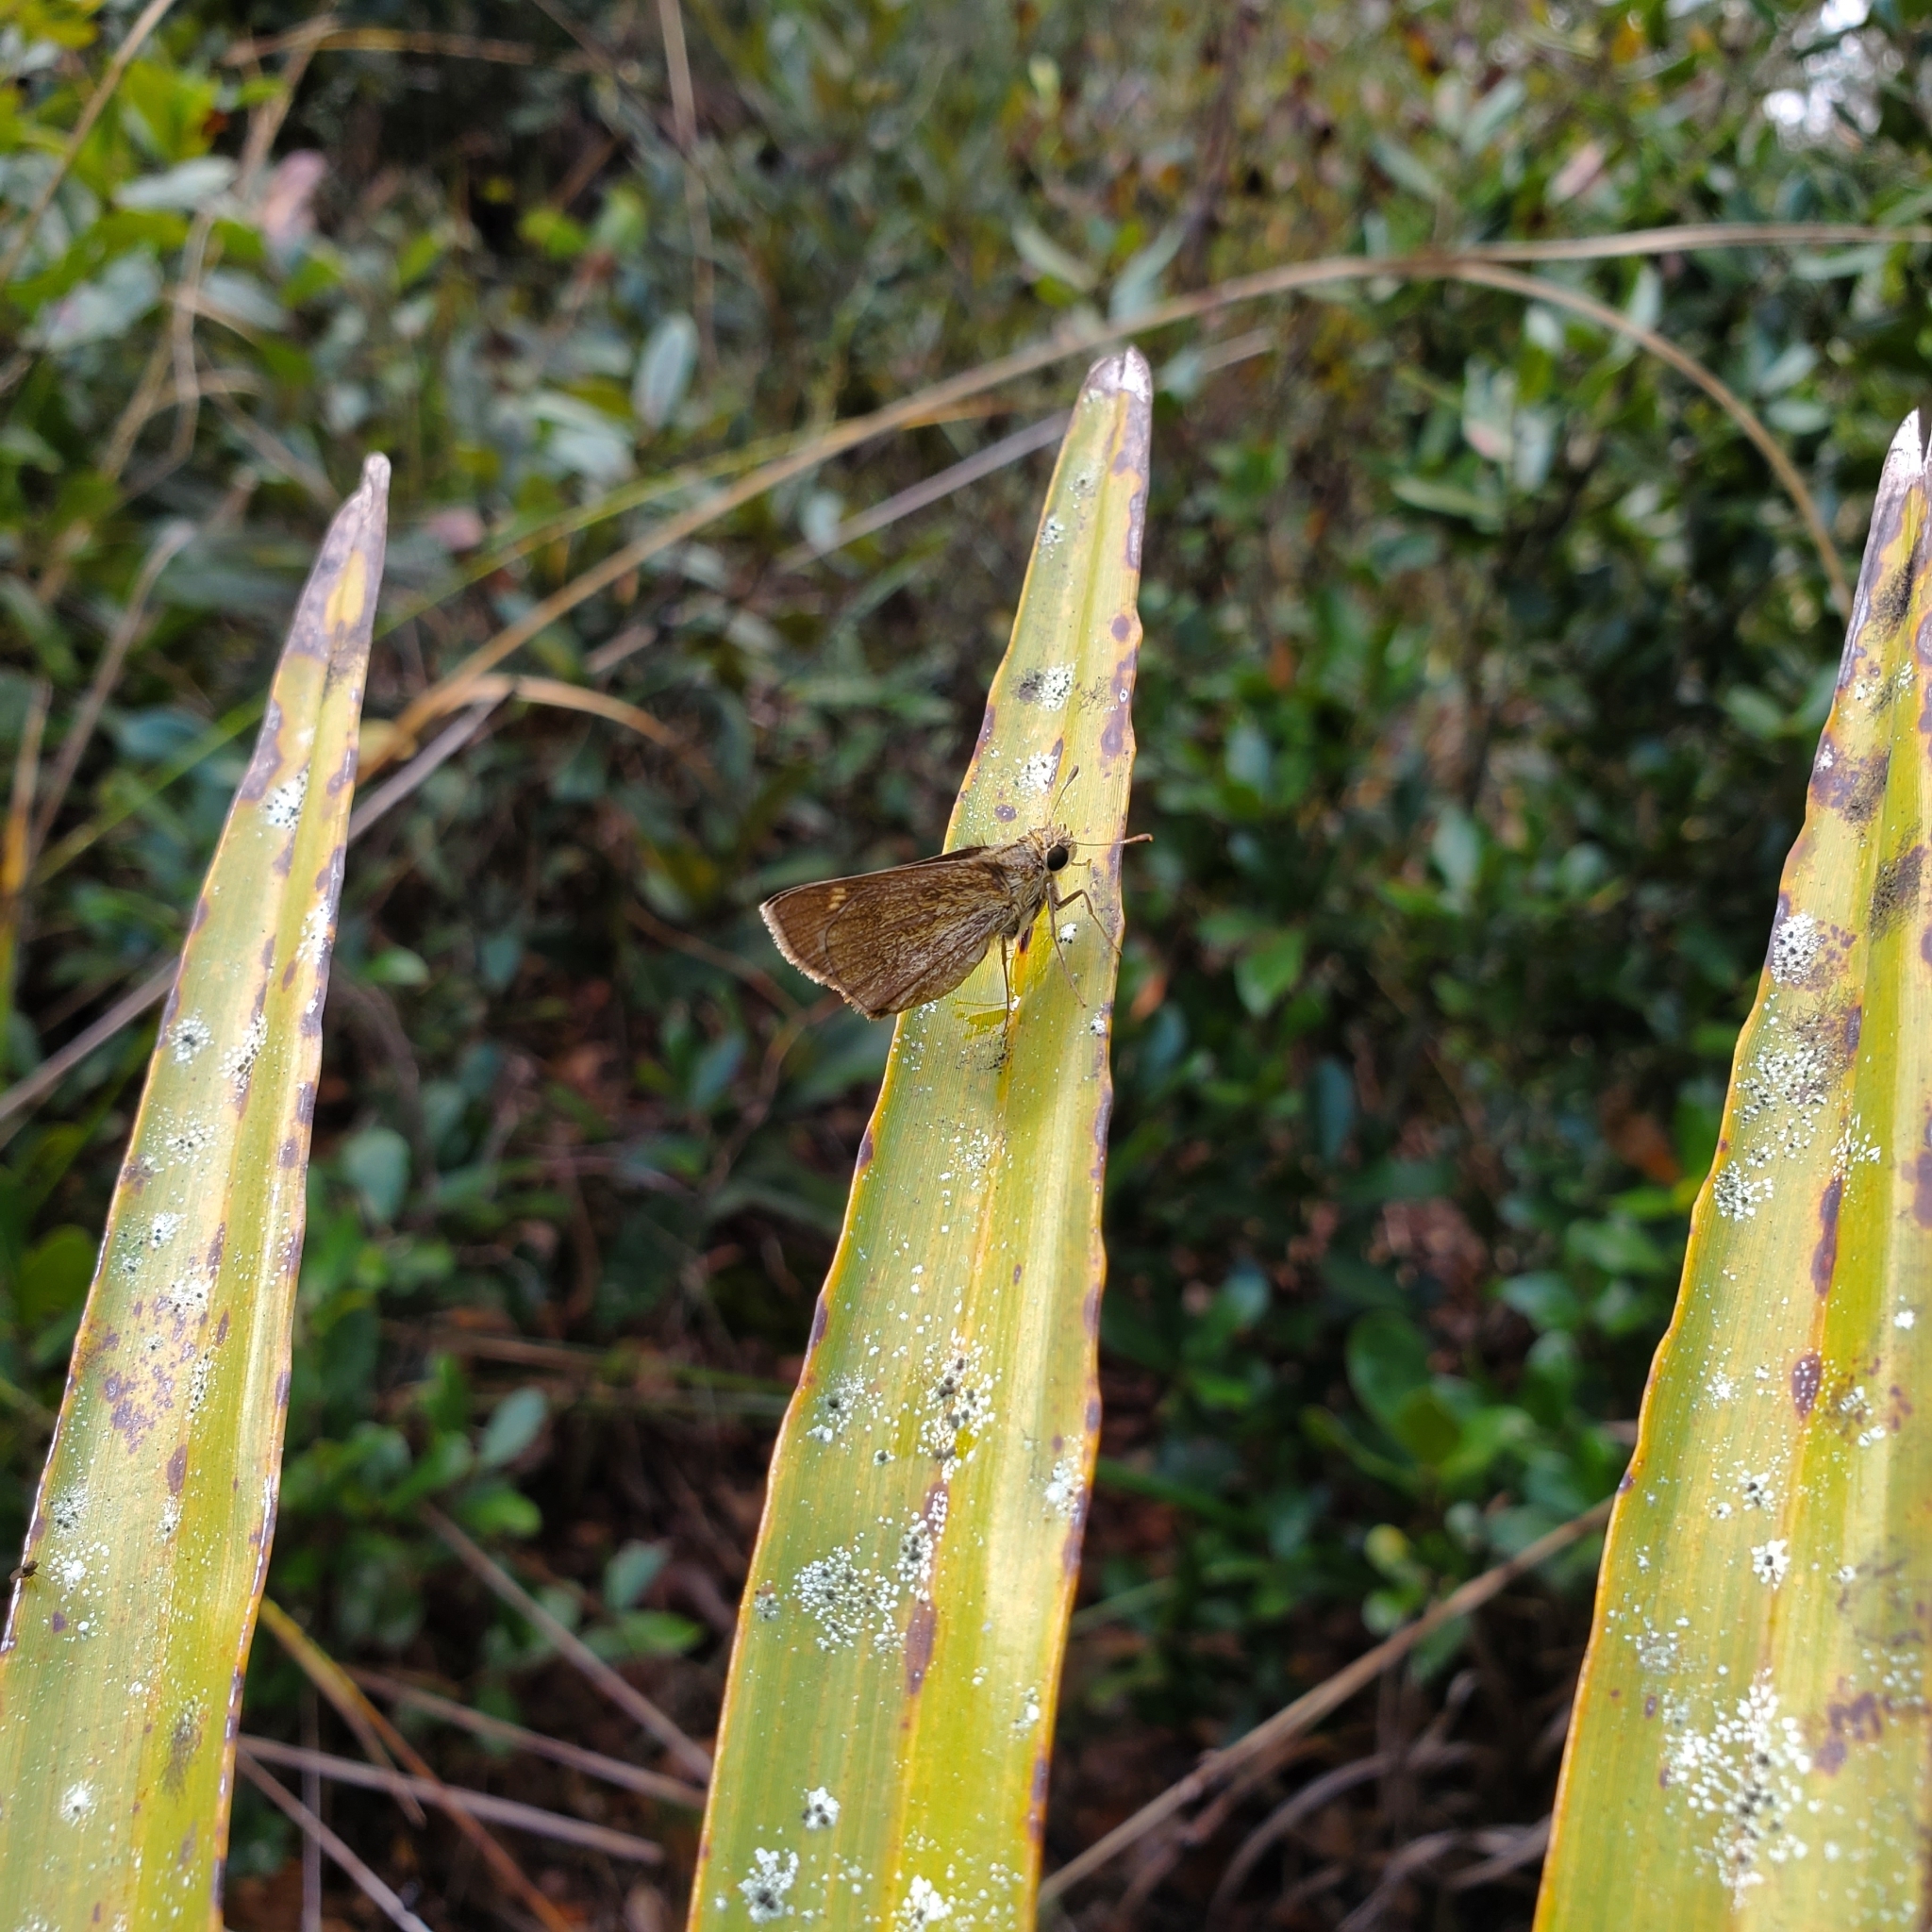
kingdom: Animalia
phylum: Arthropoda
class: Insecta
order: Lepidoptera
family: Hesperiidae
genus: Polites
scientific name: Polites vibex
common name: Whirlabout
